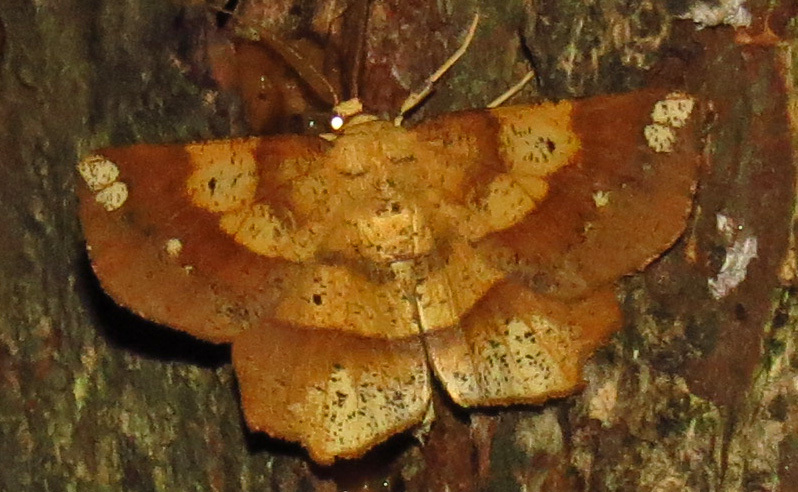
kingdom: Animalia
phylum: Arthropoda
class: Insecta
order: Lepidoptera
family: Geometridae
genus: Euchlaena
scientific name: Euchlaena amoenaria
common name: Deep yellow euchlaena
